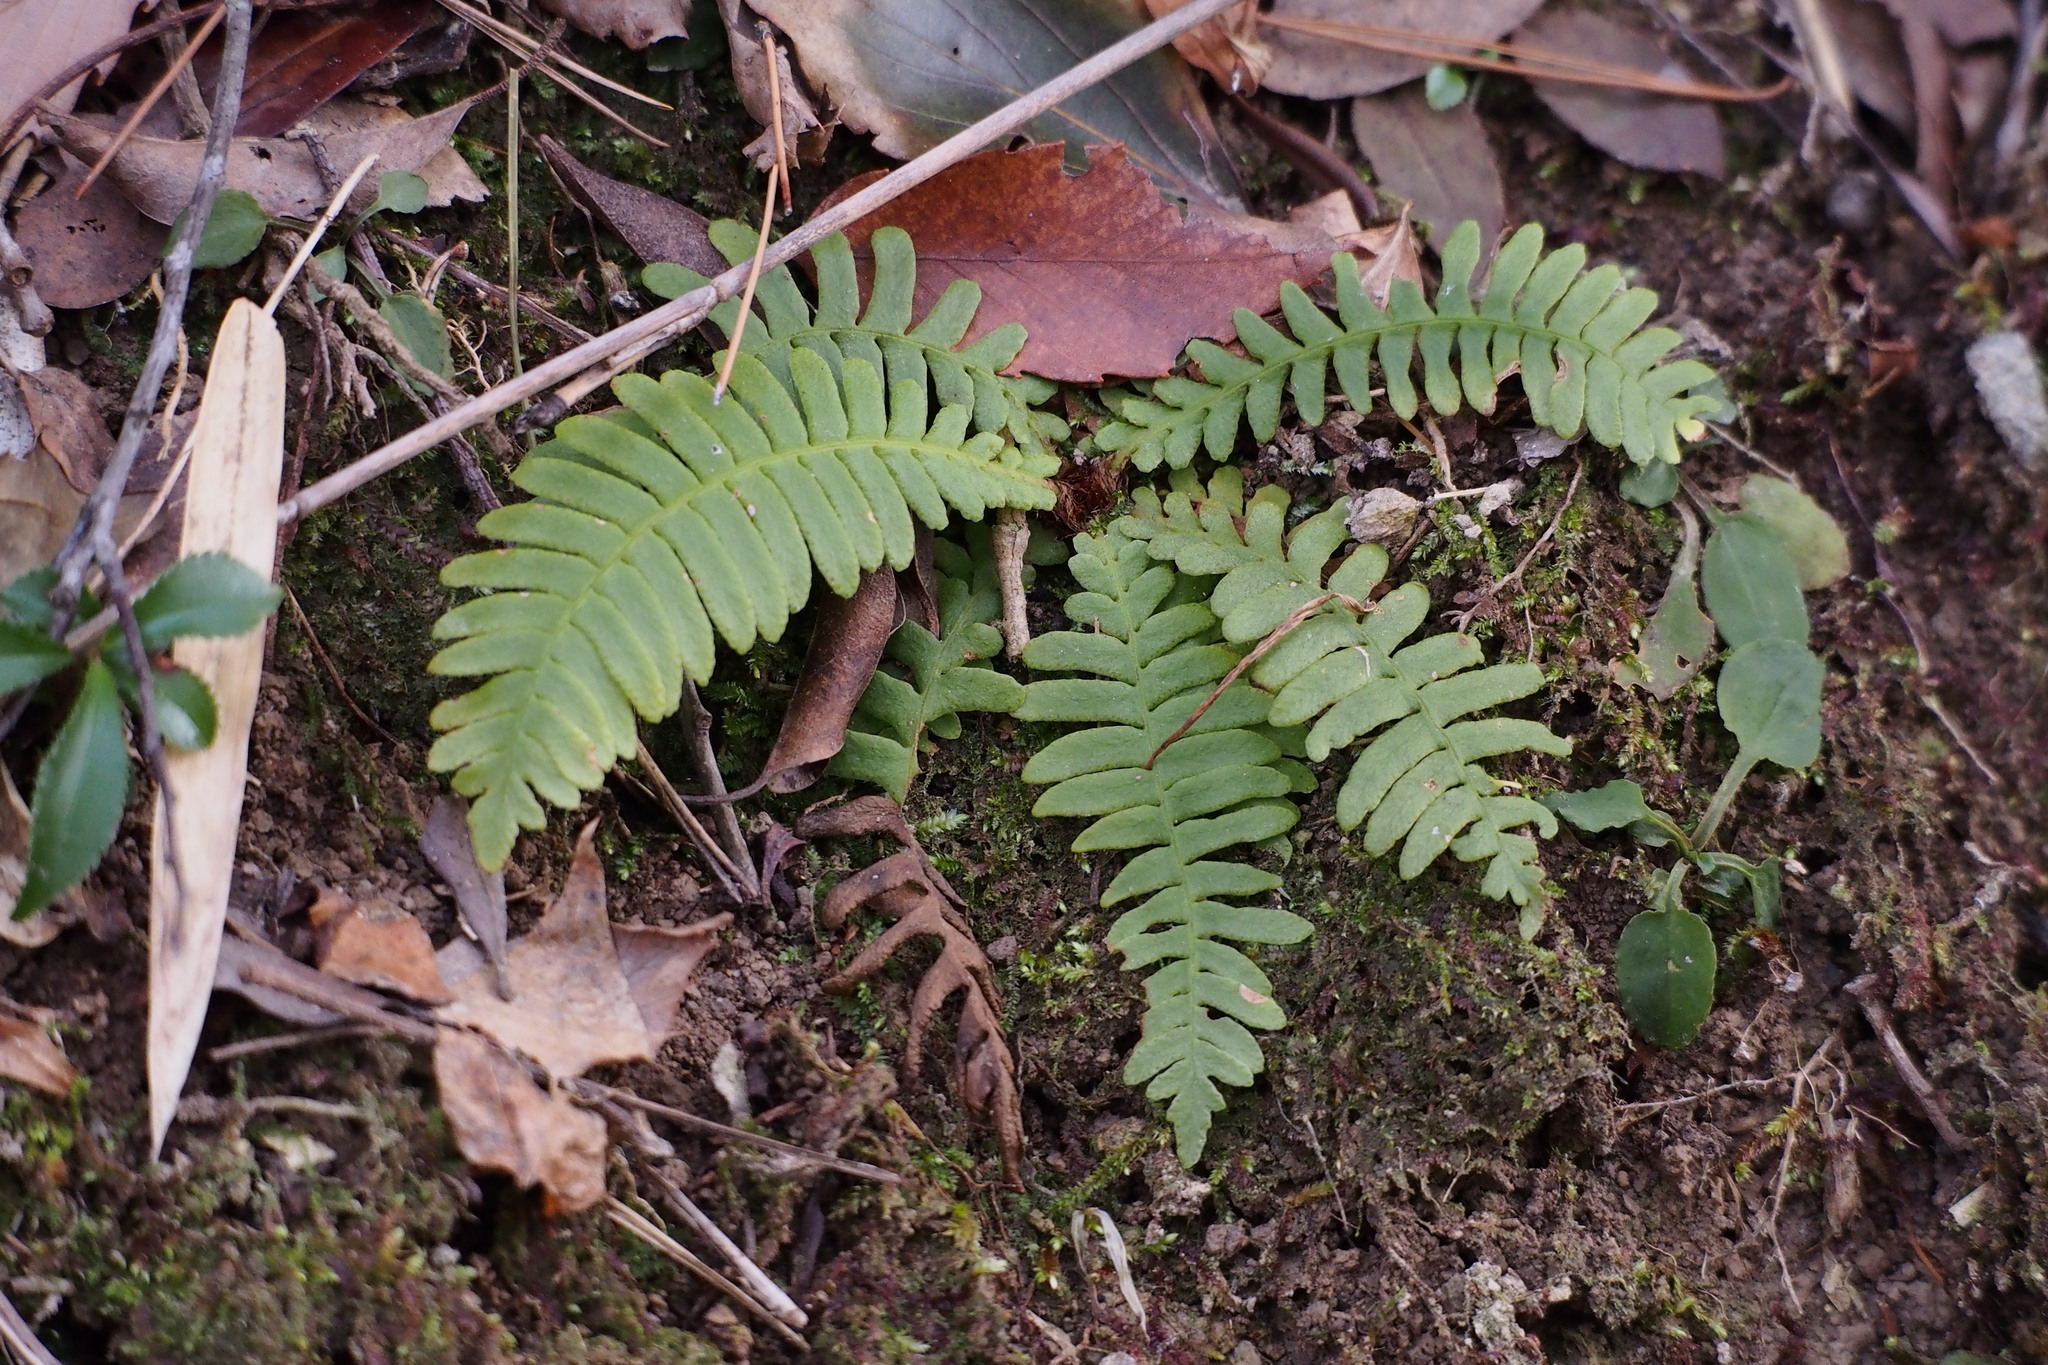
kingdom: Plantae
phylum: Tracheophyta
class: Polypodiopsida
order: Polypodiales
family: Blechnaceae
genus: Spicantopsis
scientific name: Spicantopsis niponica
